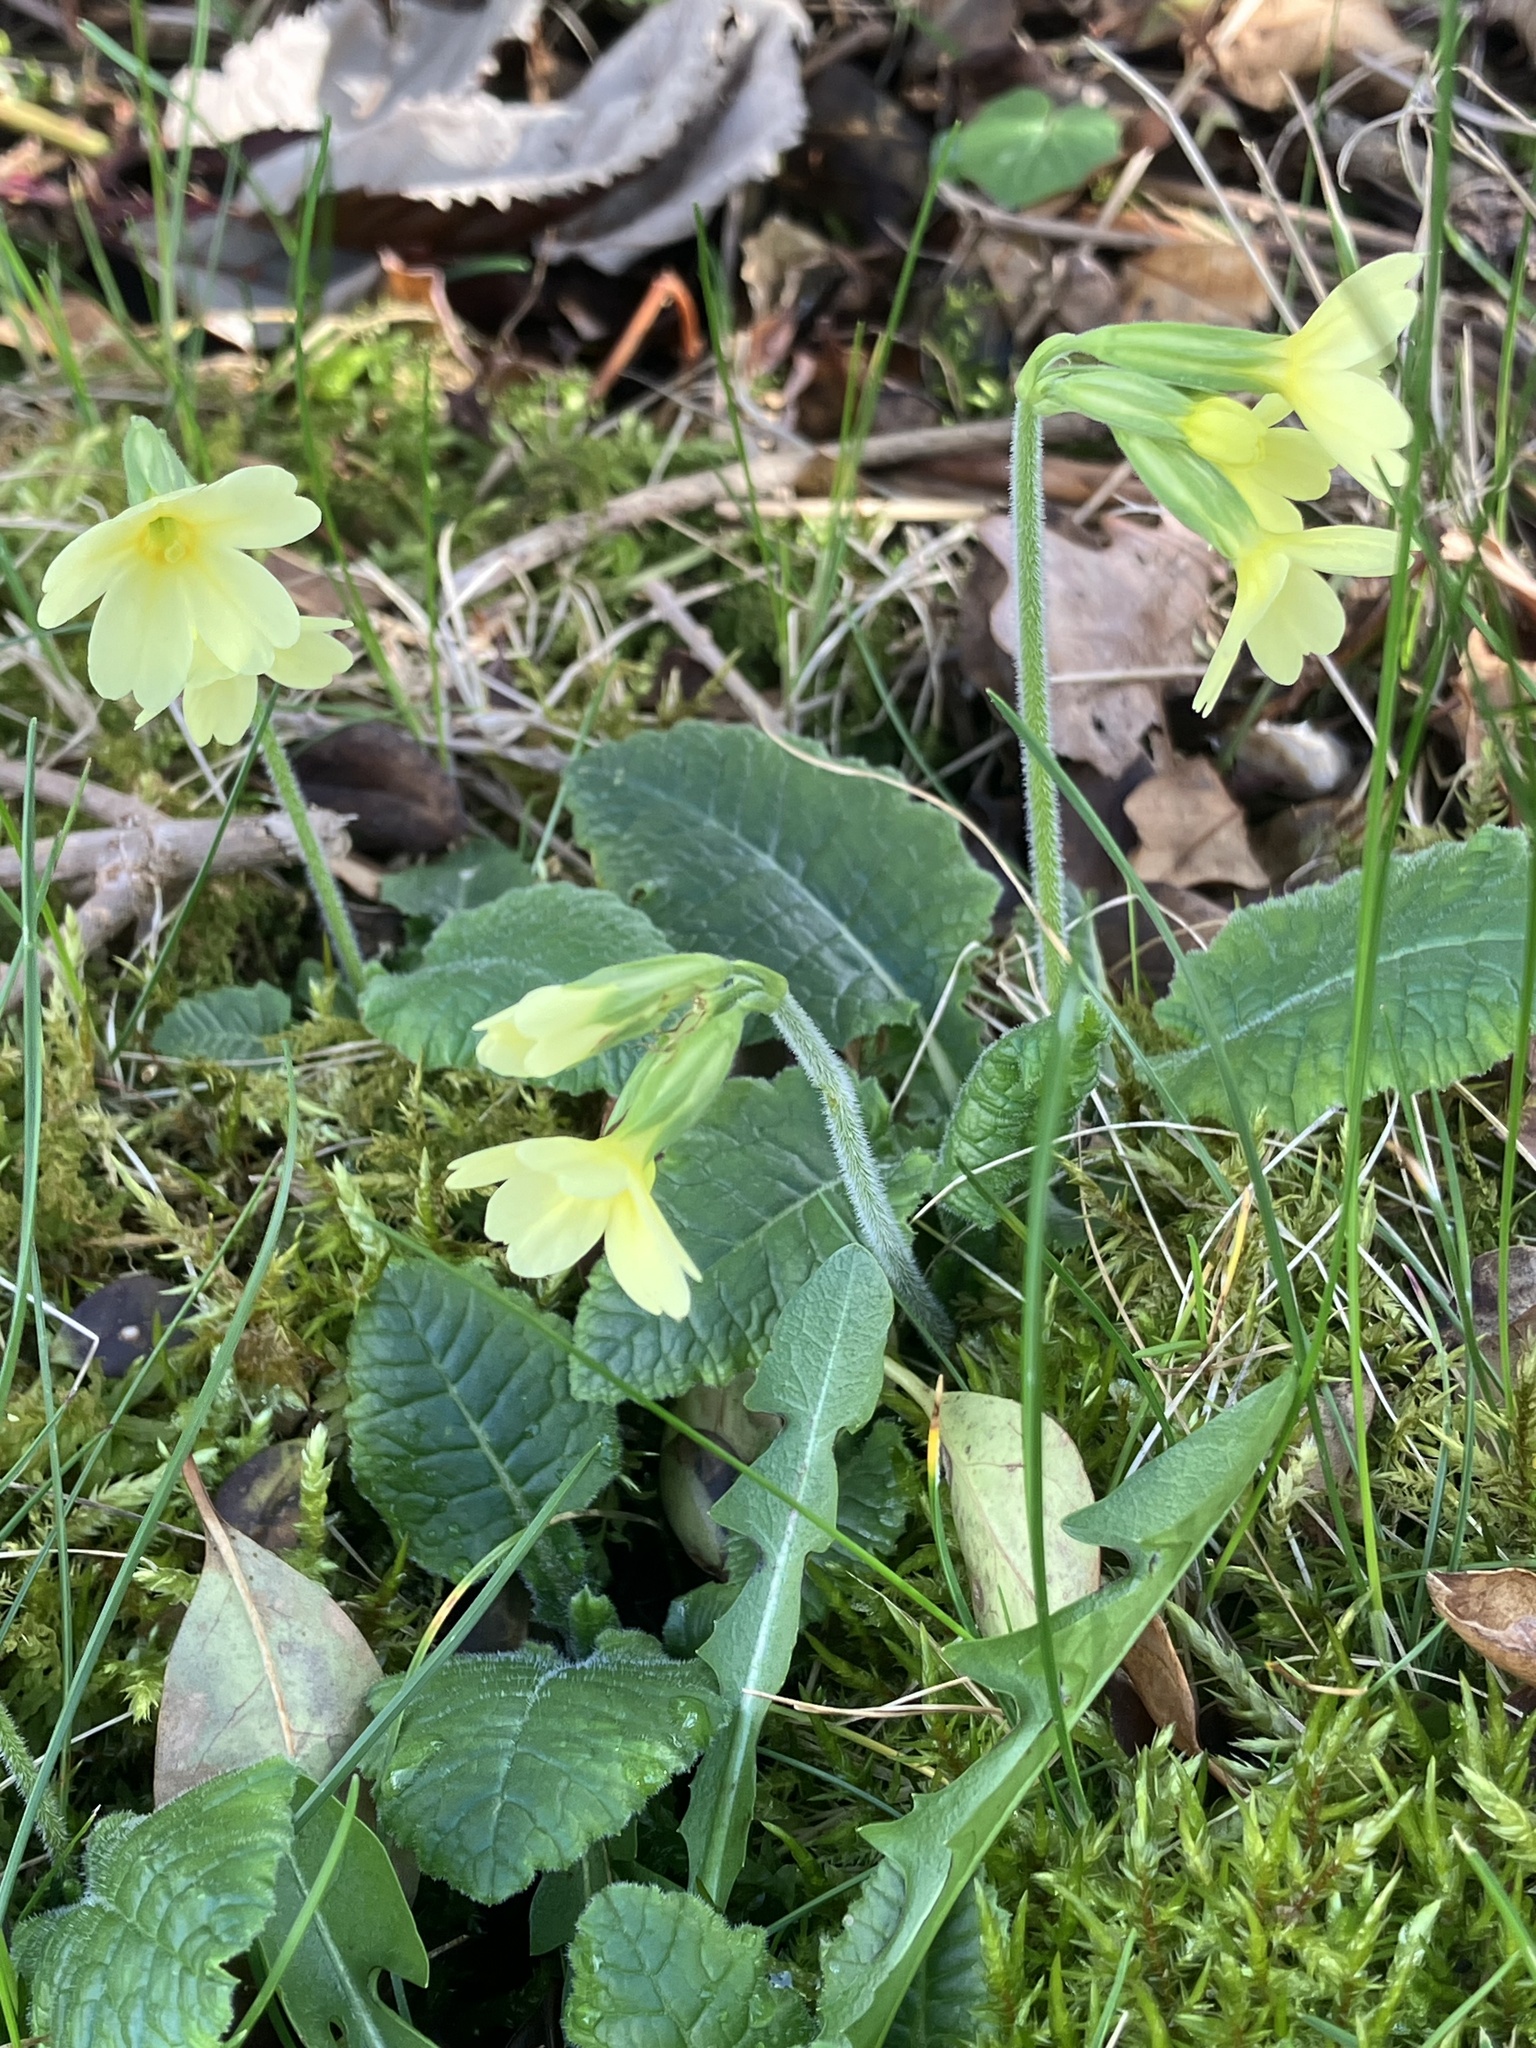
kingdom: Plantae
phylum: Tracheophyta
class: Magnoliopsida
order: Ericales
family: Primulaceae
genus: Primula
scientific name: Primula elatior
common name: Oxlip
